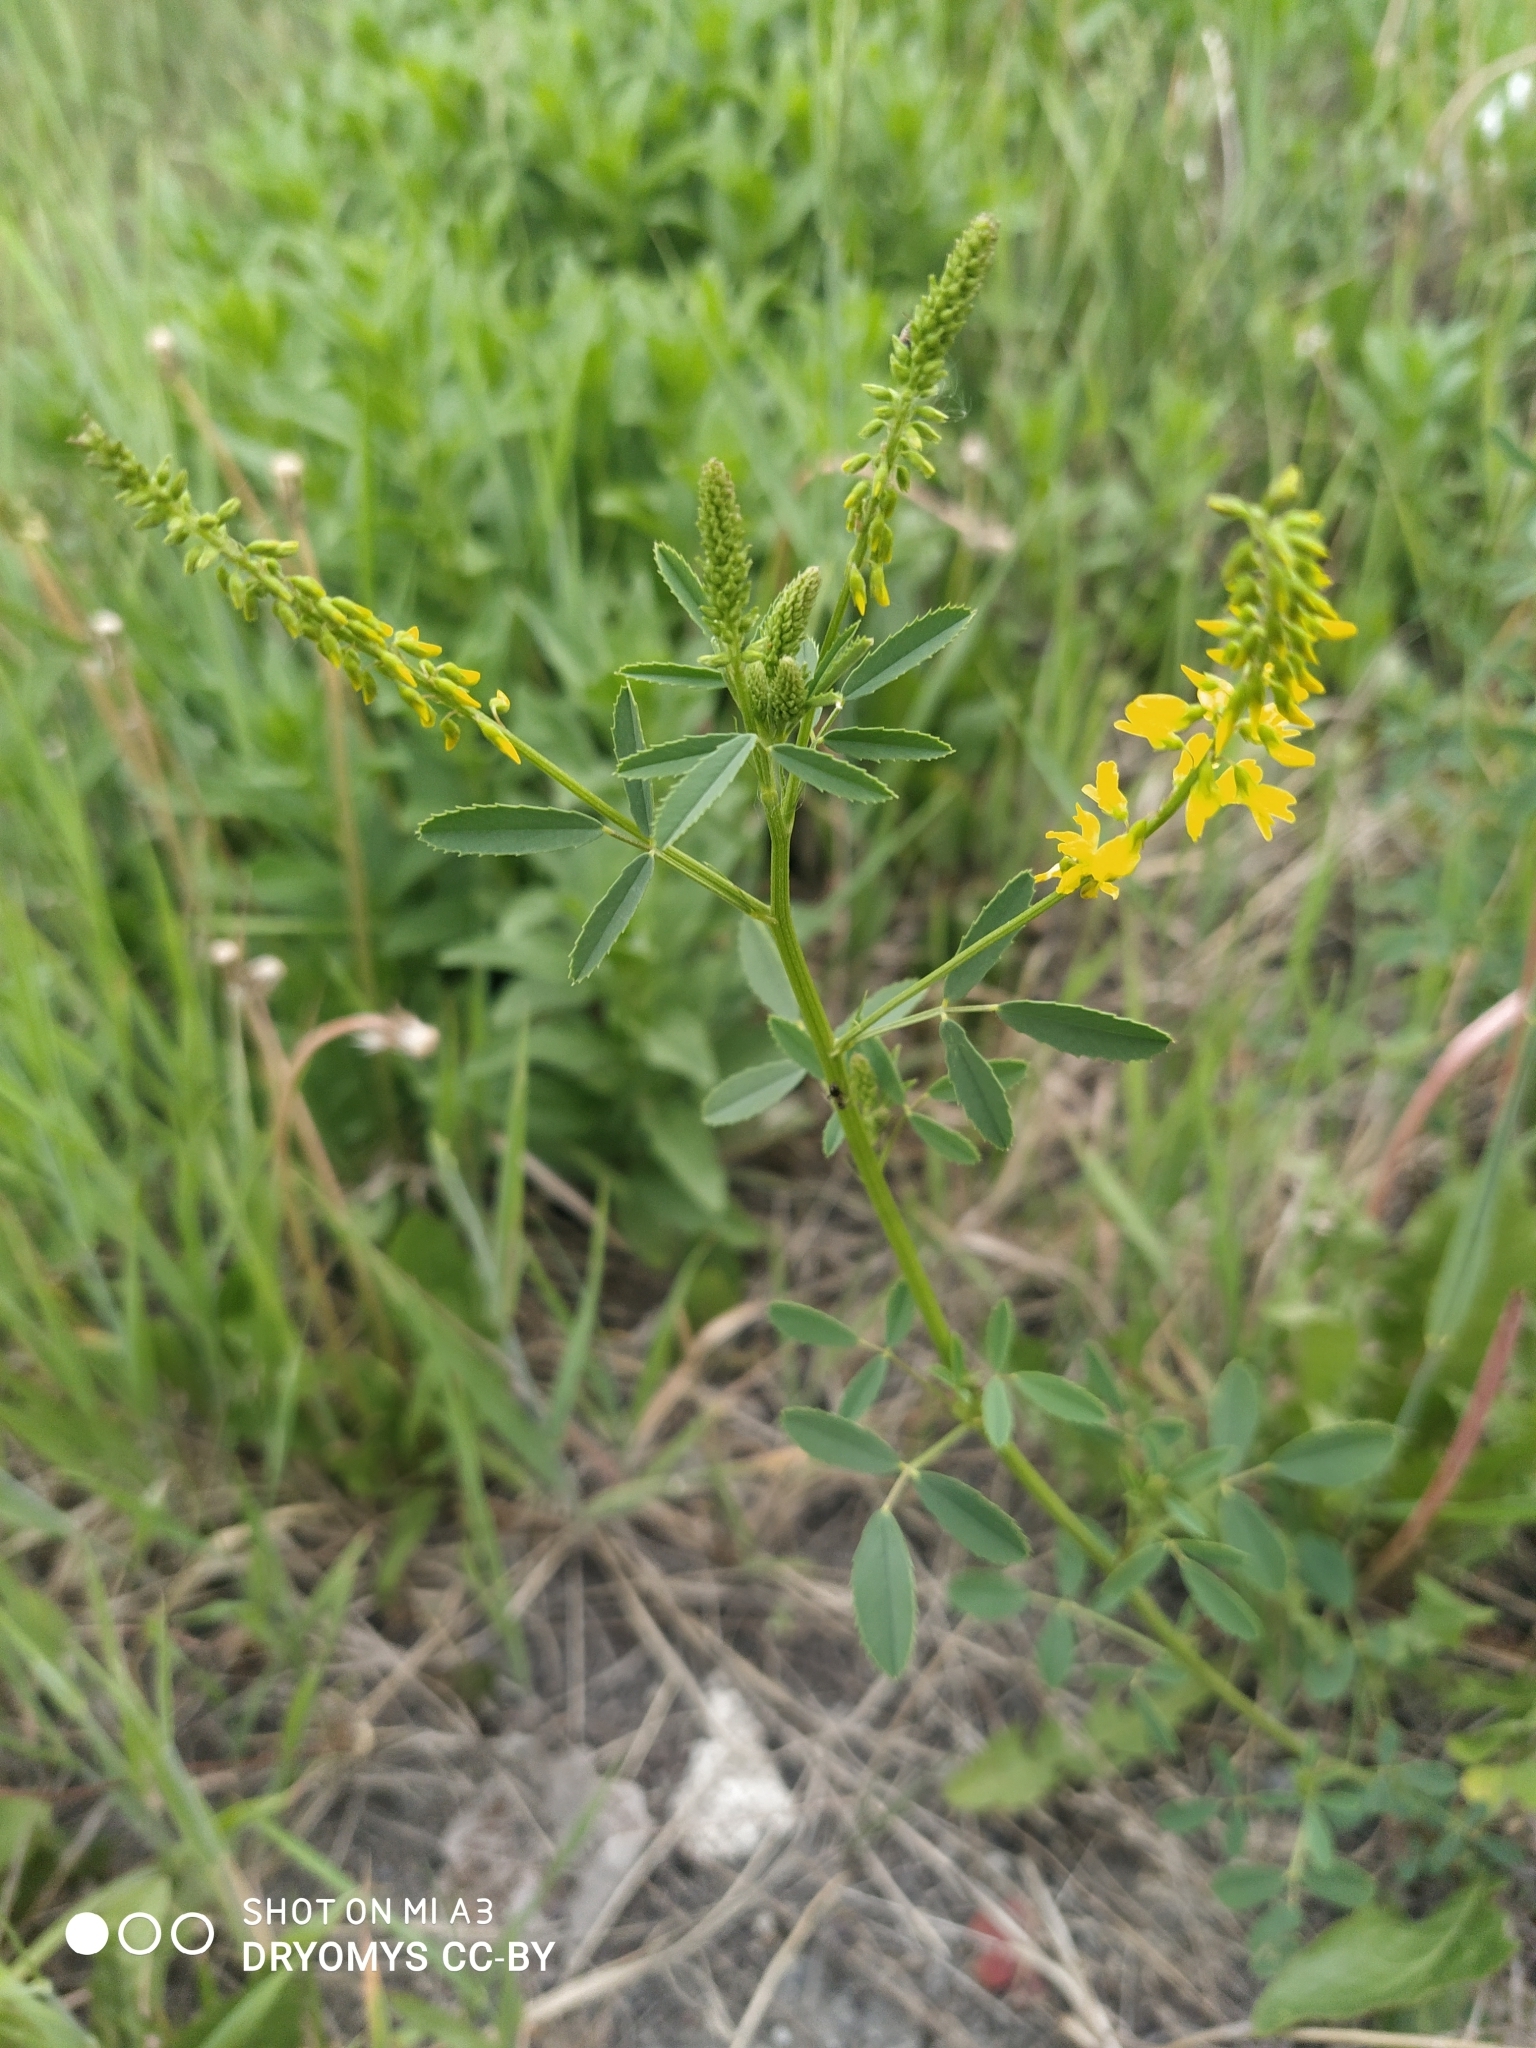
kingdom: Plantae
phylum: Tracheophyta
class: Magnoliopsida
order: Fabales
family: Fabaceae
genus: Melilotus
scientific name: Melilotus officinalis
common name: Sweetclover
